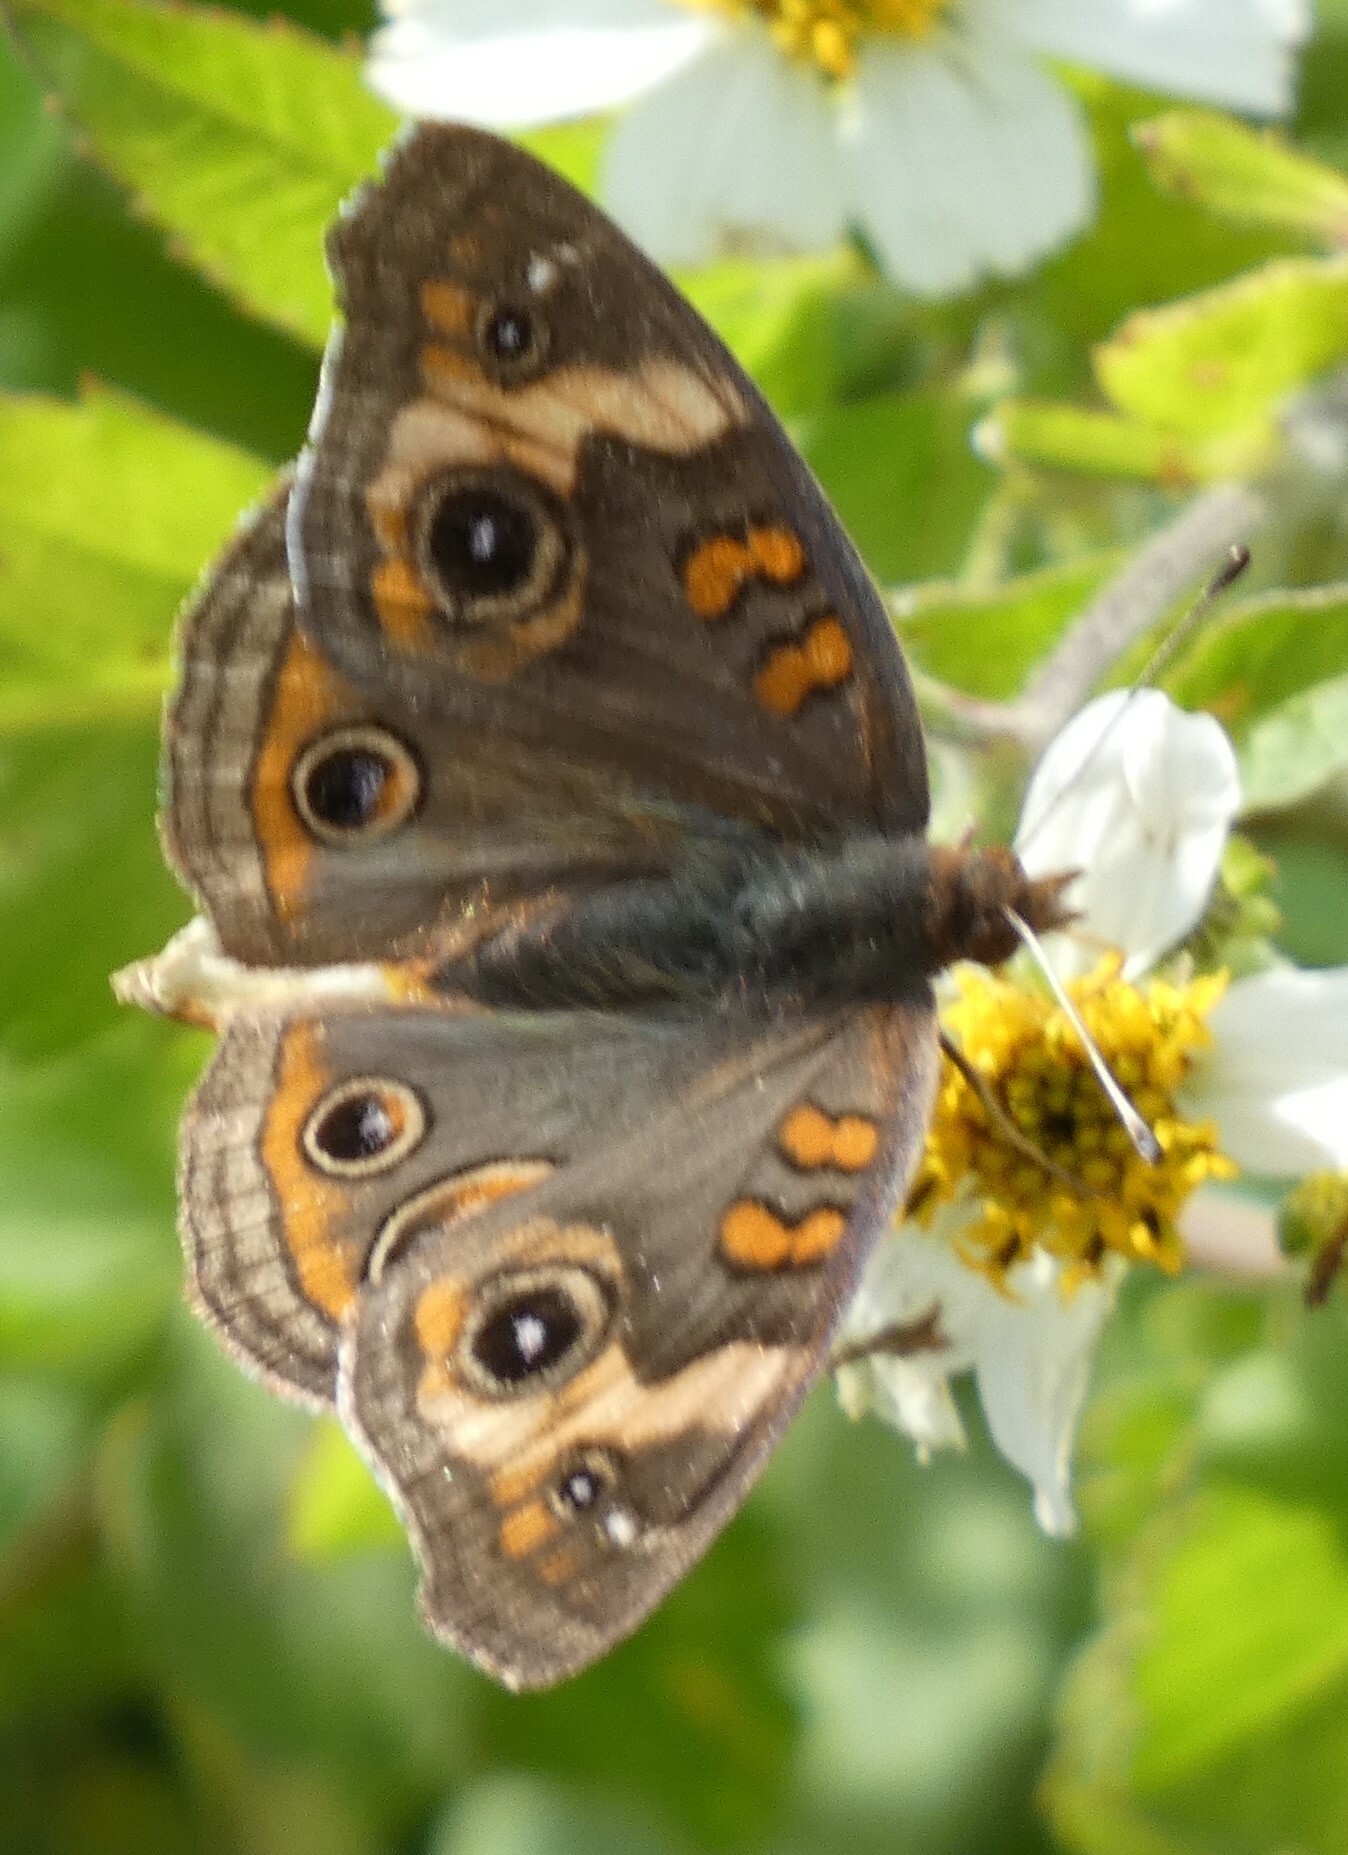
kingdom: Animalia
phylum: Arthropoda
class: Insecta
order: Lepidoptera
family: Nymphalidae
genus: Junonia
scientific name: Junonia coenia
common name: Common buckeye
